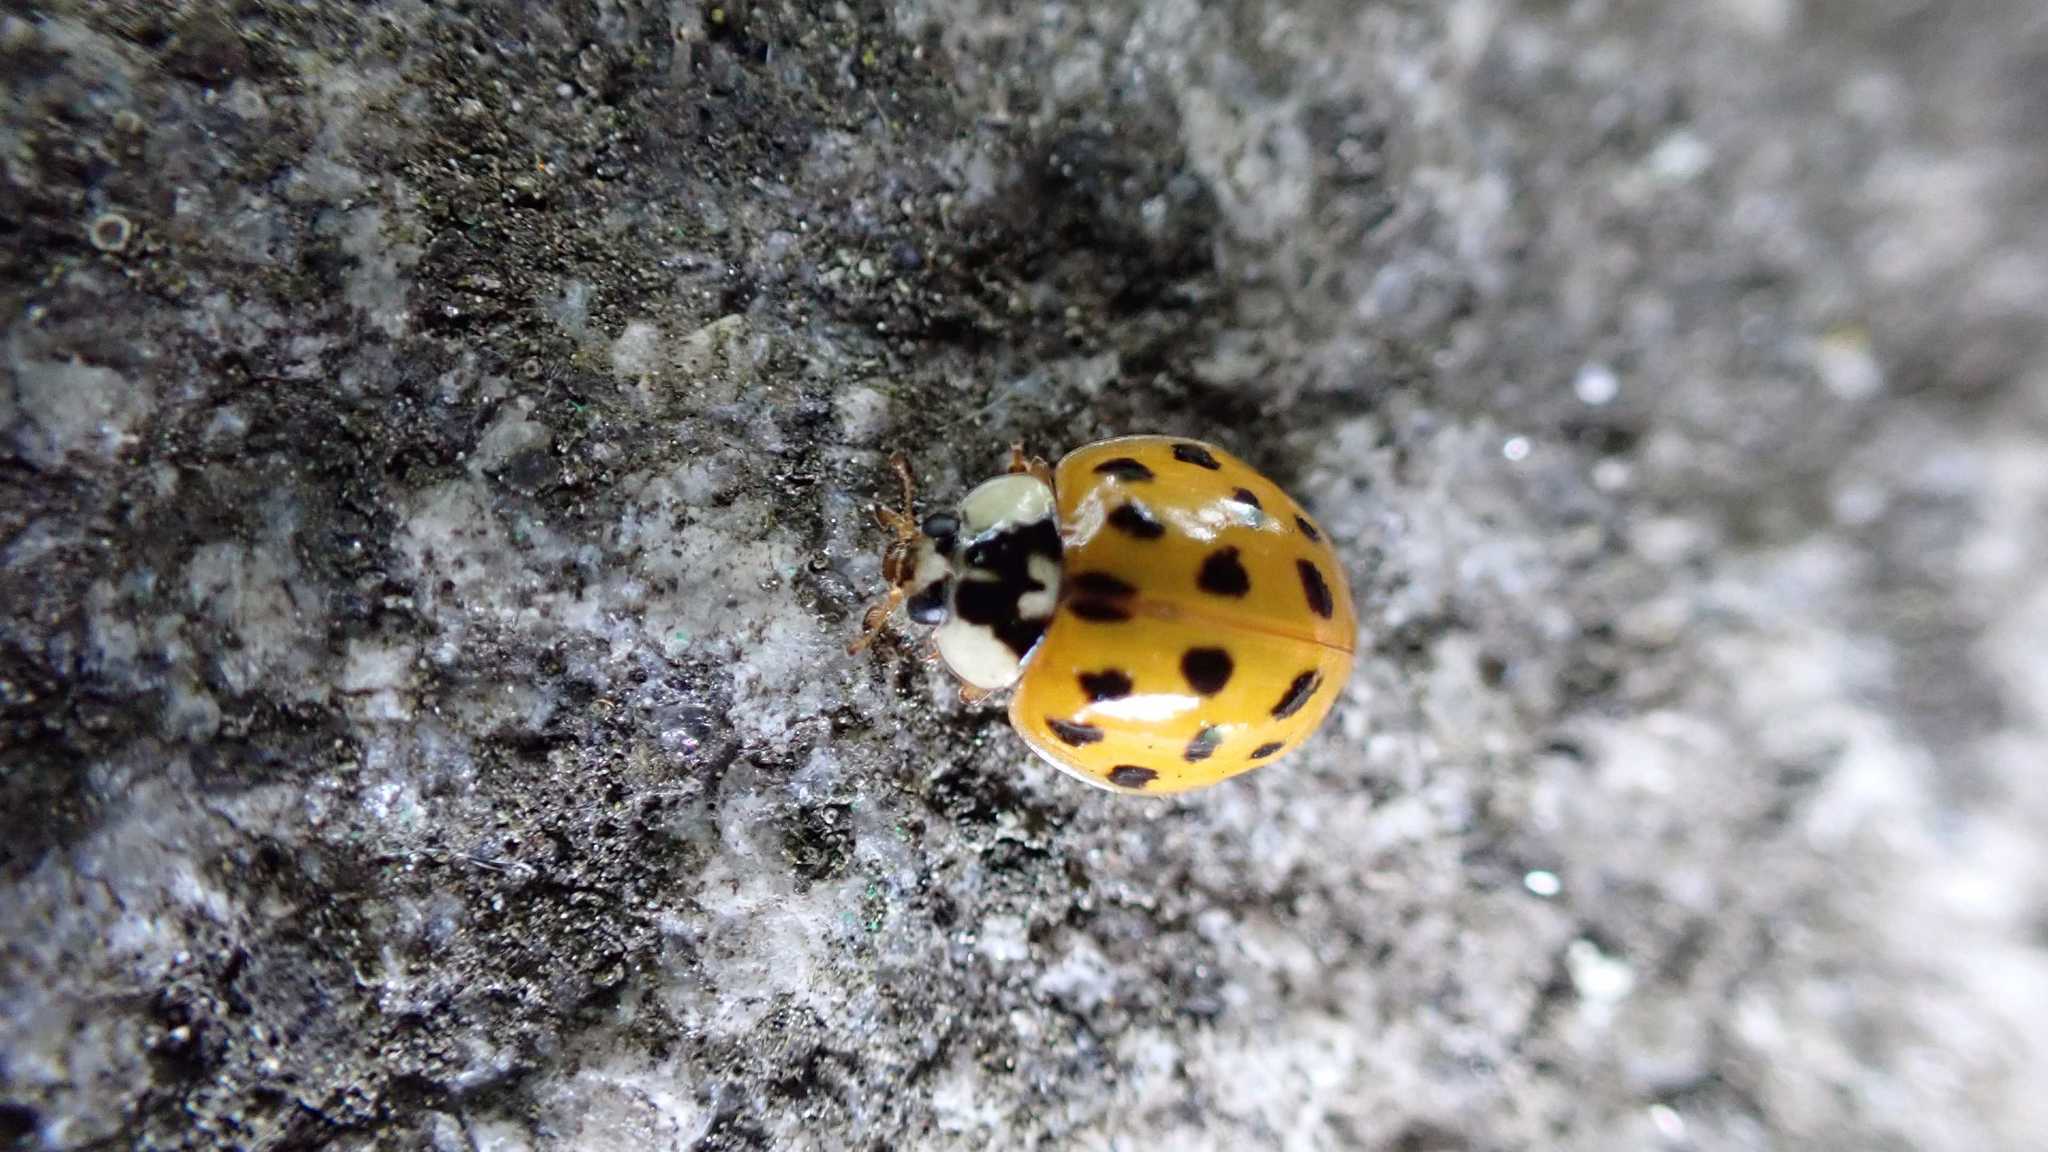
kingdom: Animalia
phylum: Arthropoda
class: Insecta
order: Coleoptera
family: Coccinellidae
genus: Harmonia
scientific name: Harmonia axyridis
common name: Harlequin ladybird
